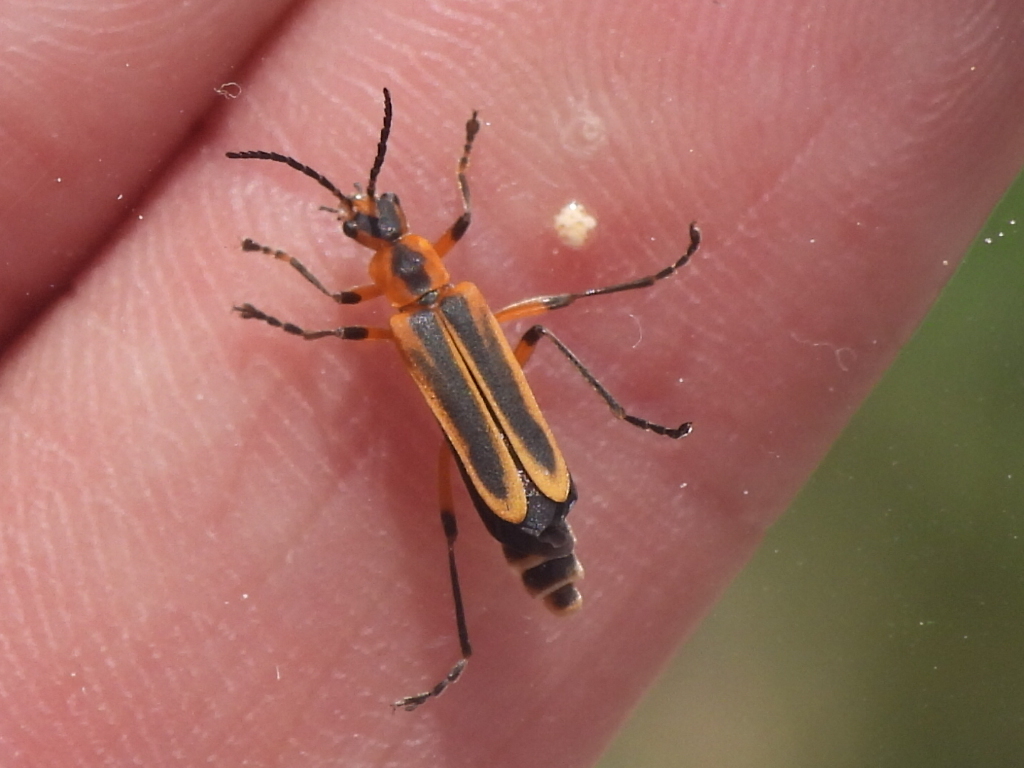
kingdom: Animalia
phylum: Arthropoda
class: Insecta
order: Coleoptera
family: Cantharidae
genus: Chauliognathus
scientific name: Chauliognathus marginatus
